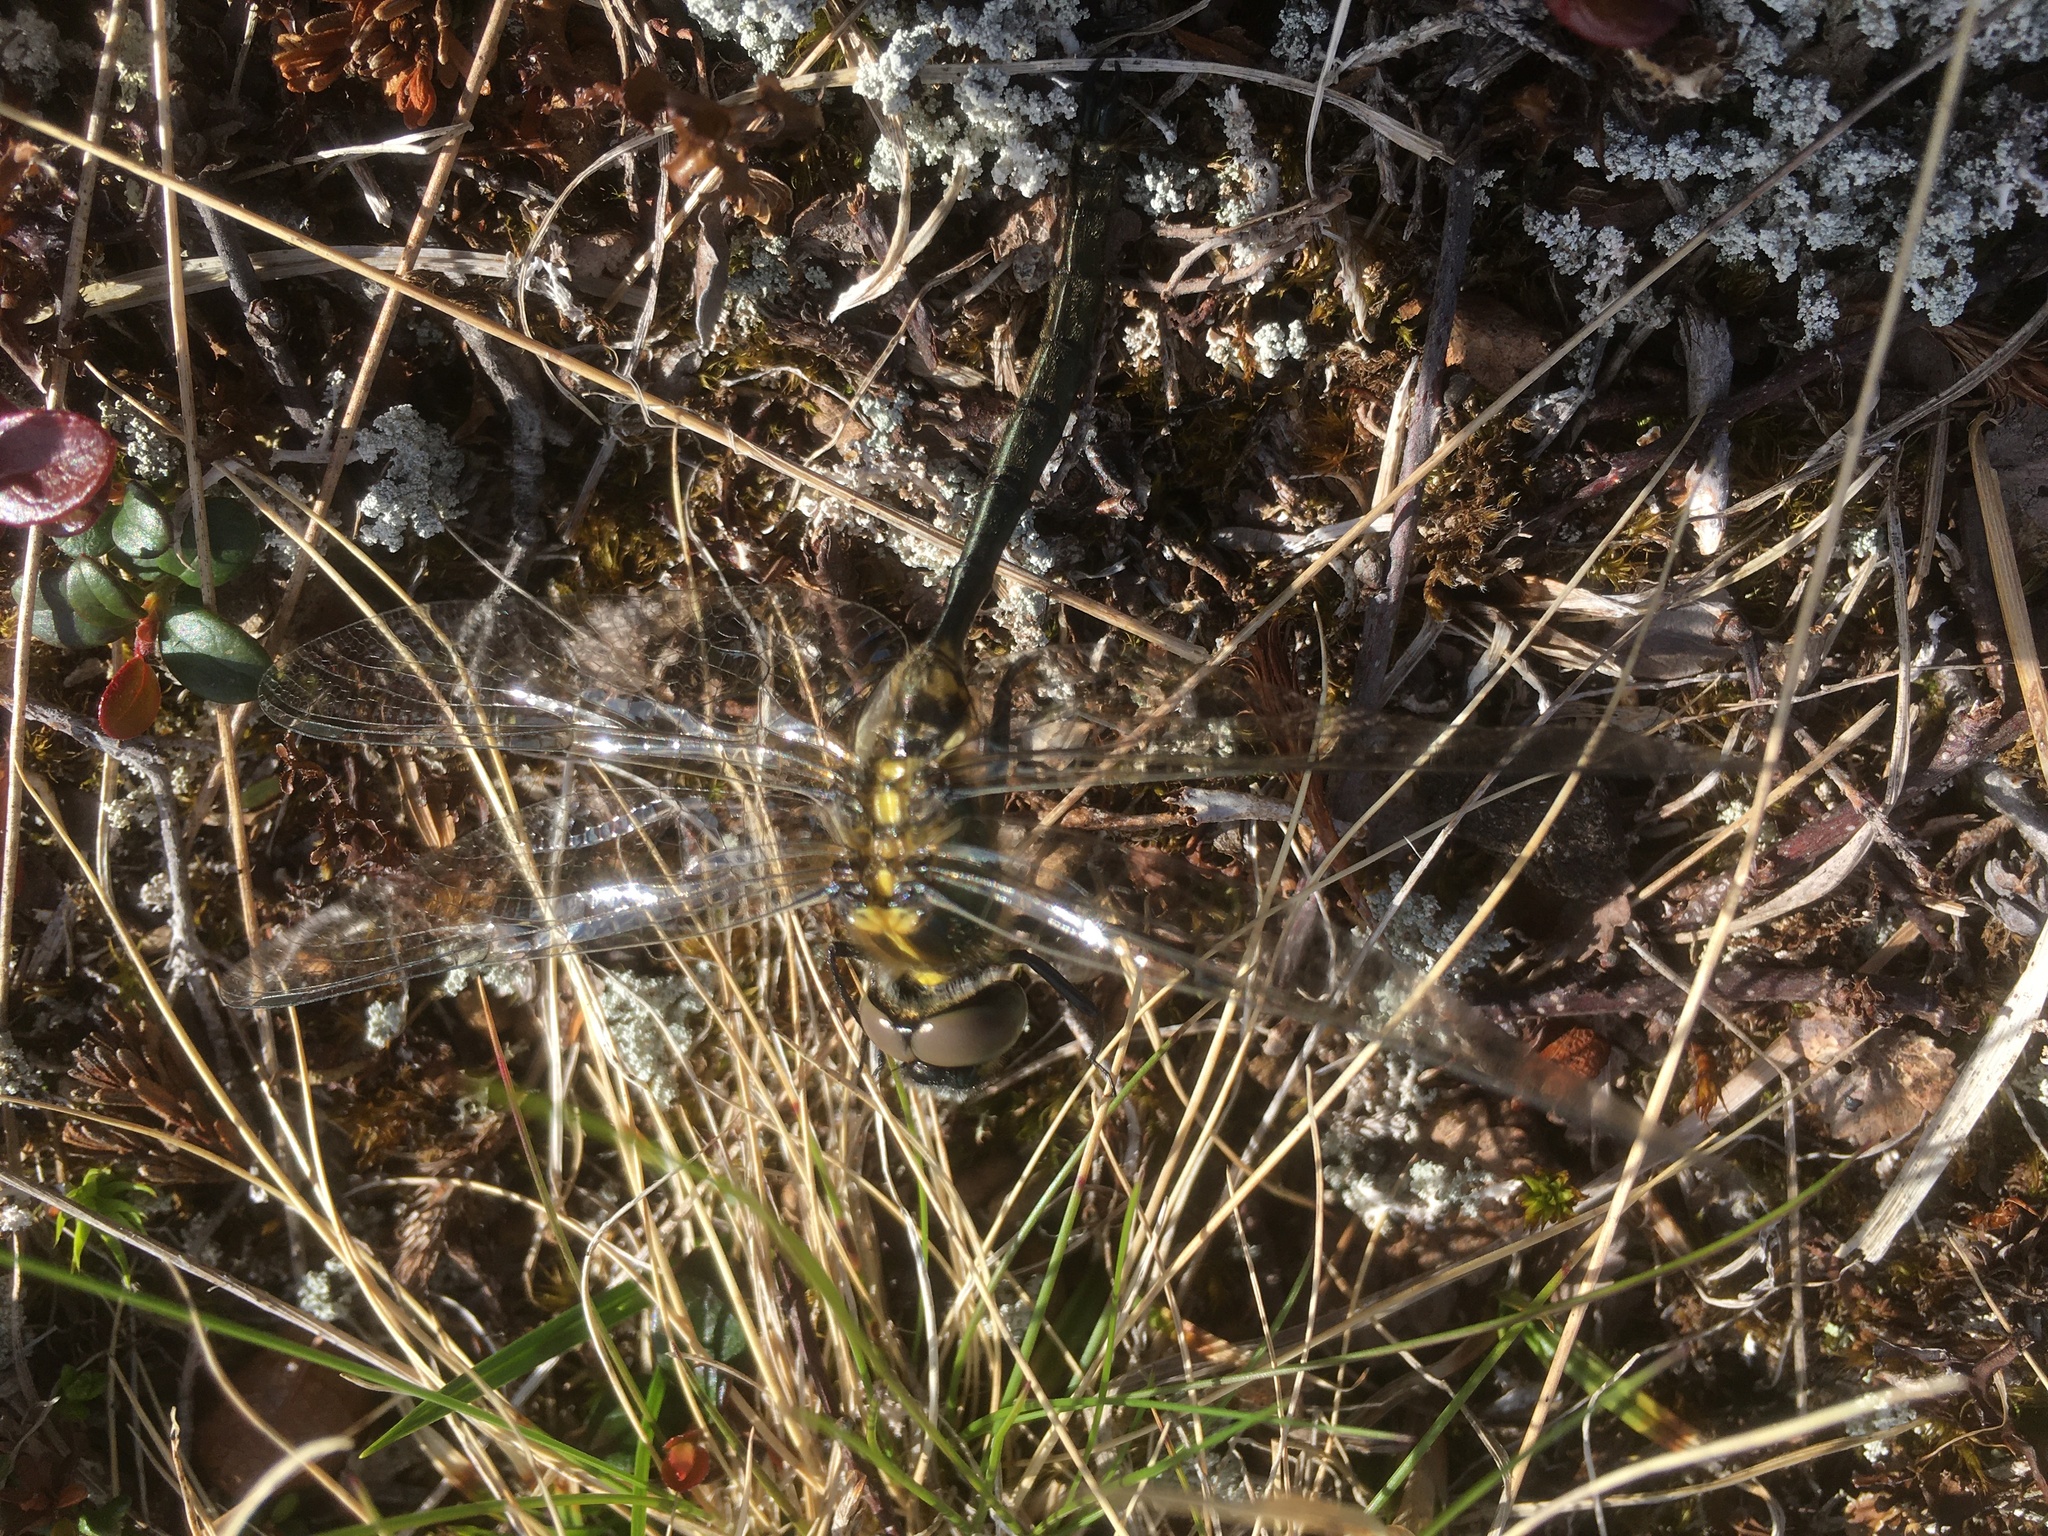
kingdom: Animalia
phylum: Arthropoda
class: Insecta
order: Odonata
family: Corduliidae
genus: Somatochlora
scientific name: Somatochlora arctica
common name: Northern emerald
